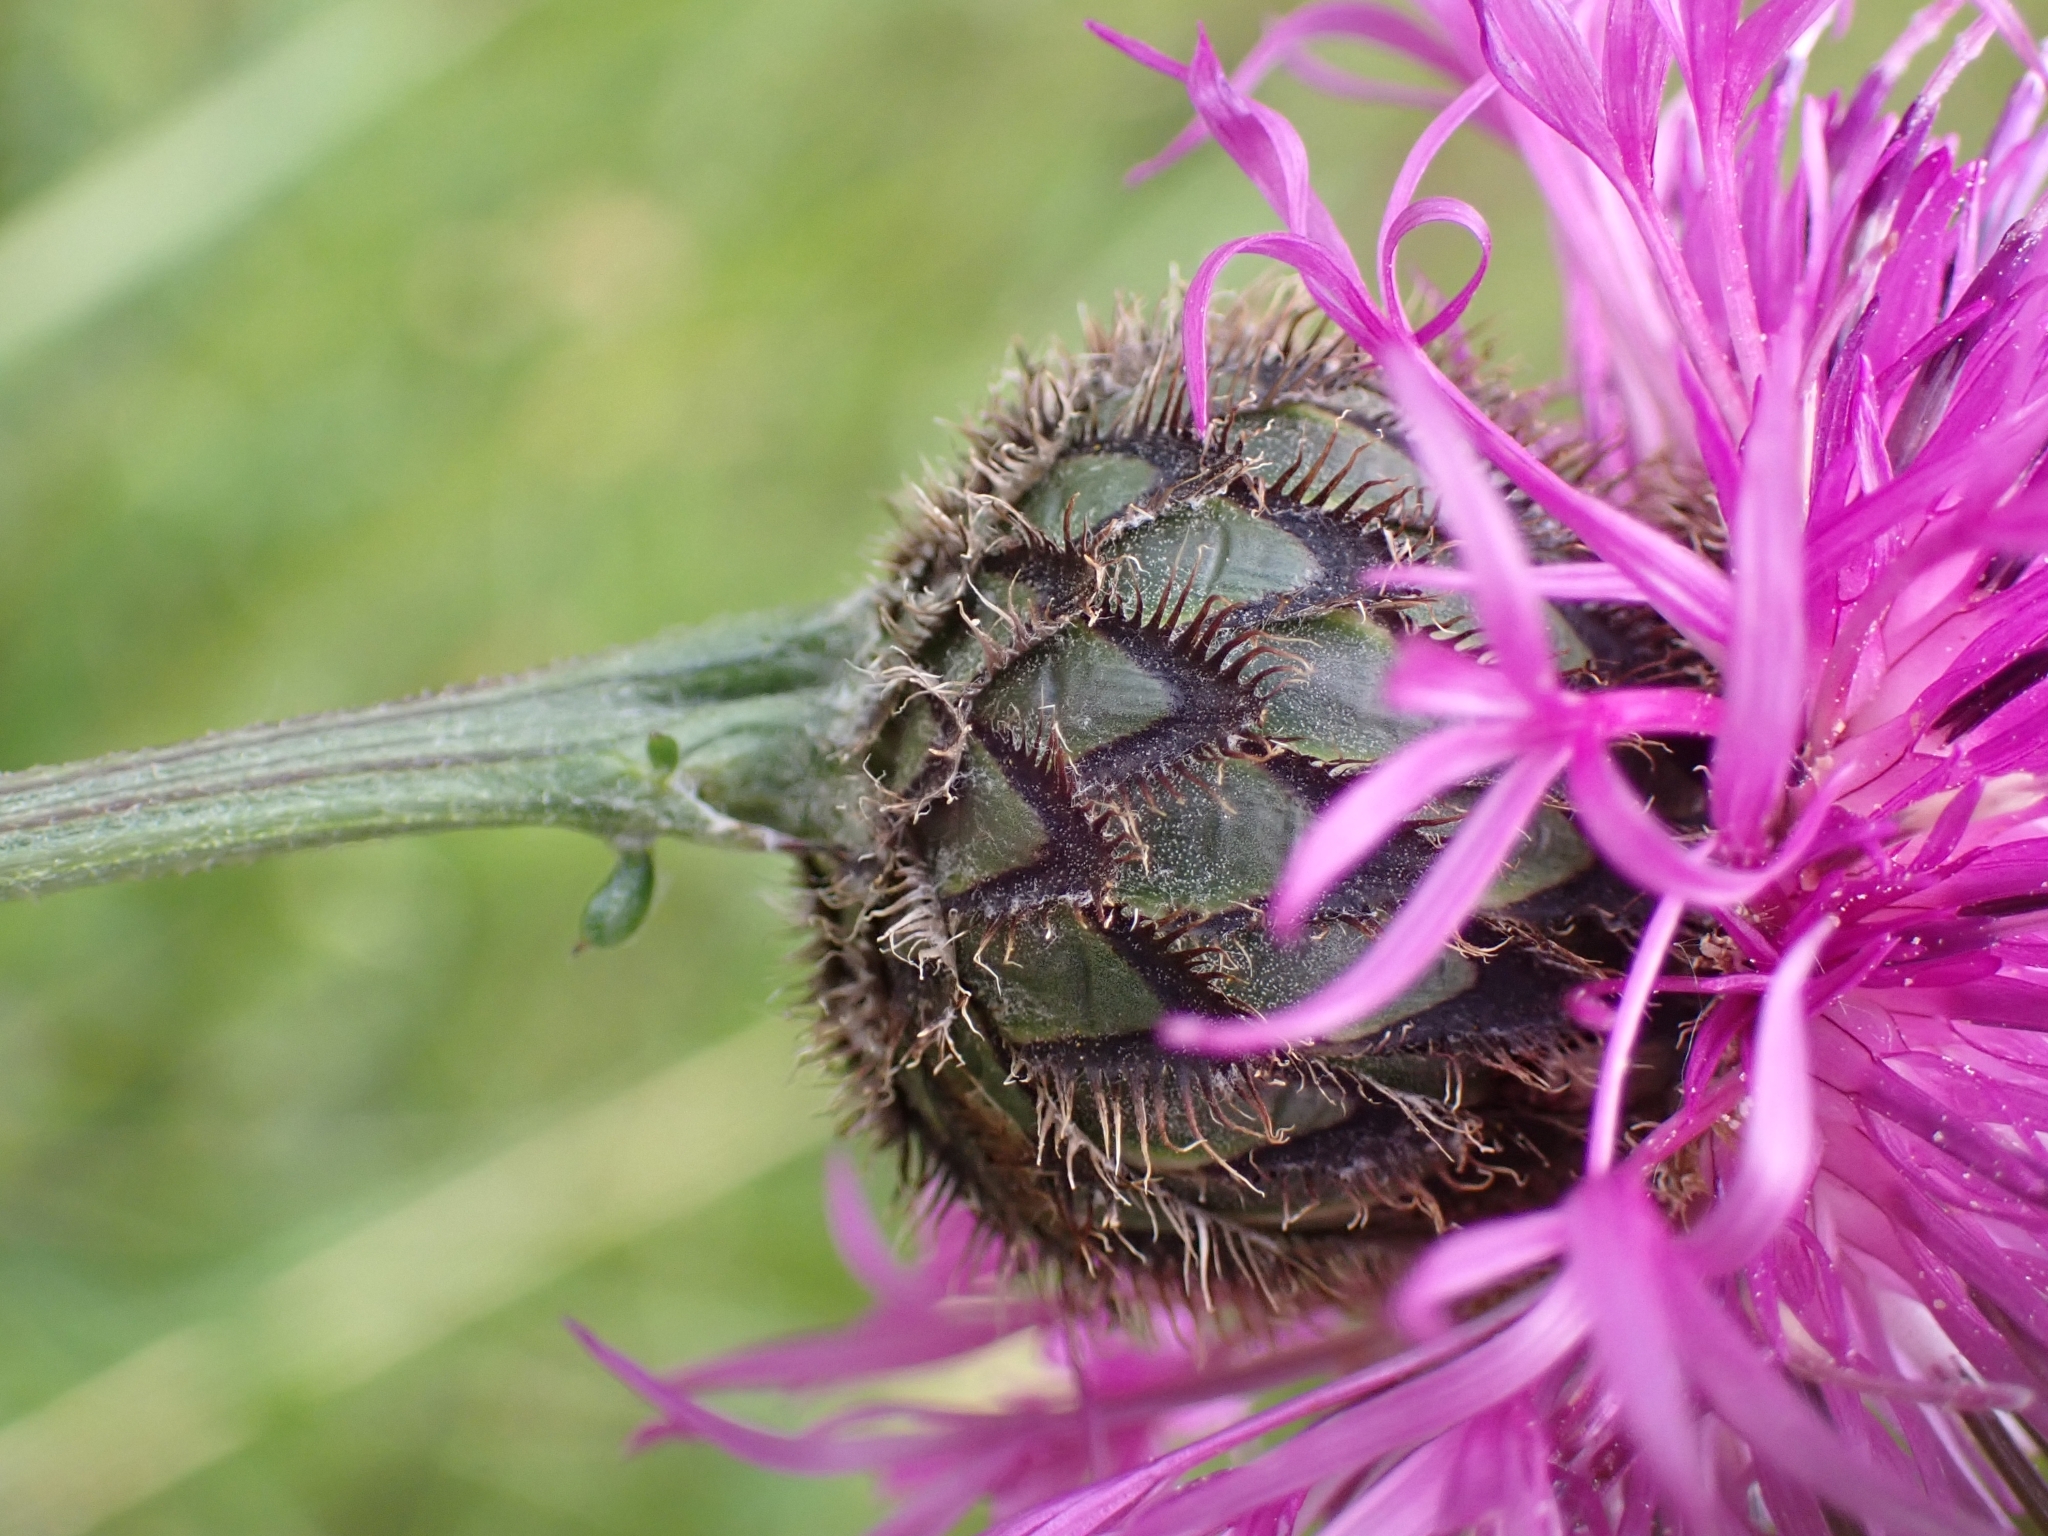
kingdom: Plantae
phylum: Tracheophyta
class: Magnoliopsida
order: Asterales
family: Asteraceae
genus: Centaurea
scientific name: Centaurea scabiosa
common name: Greater knapweed
